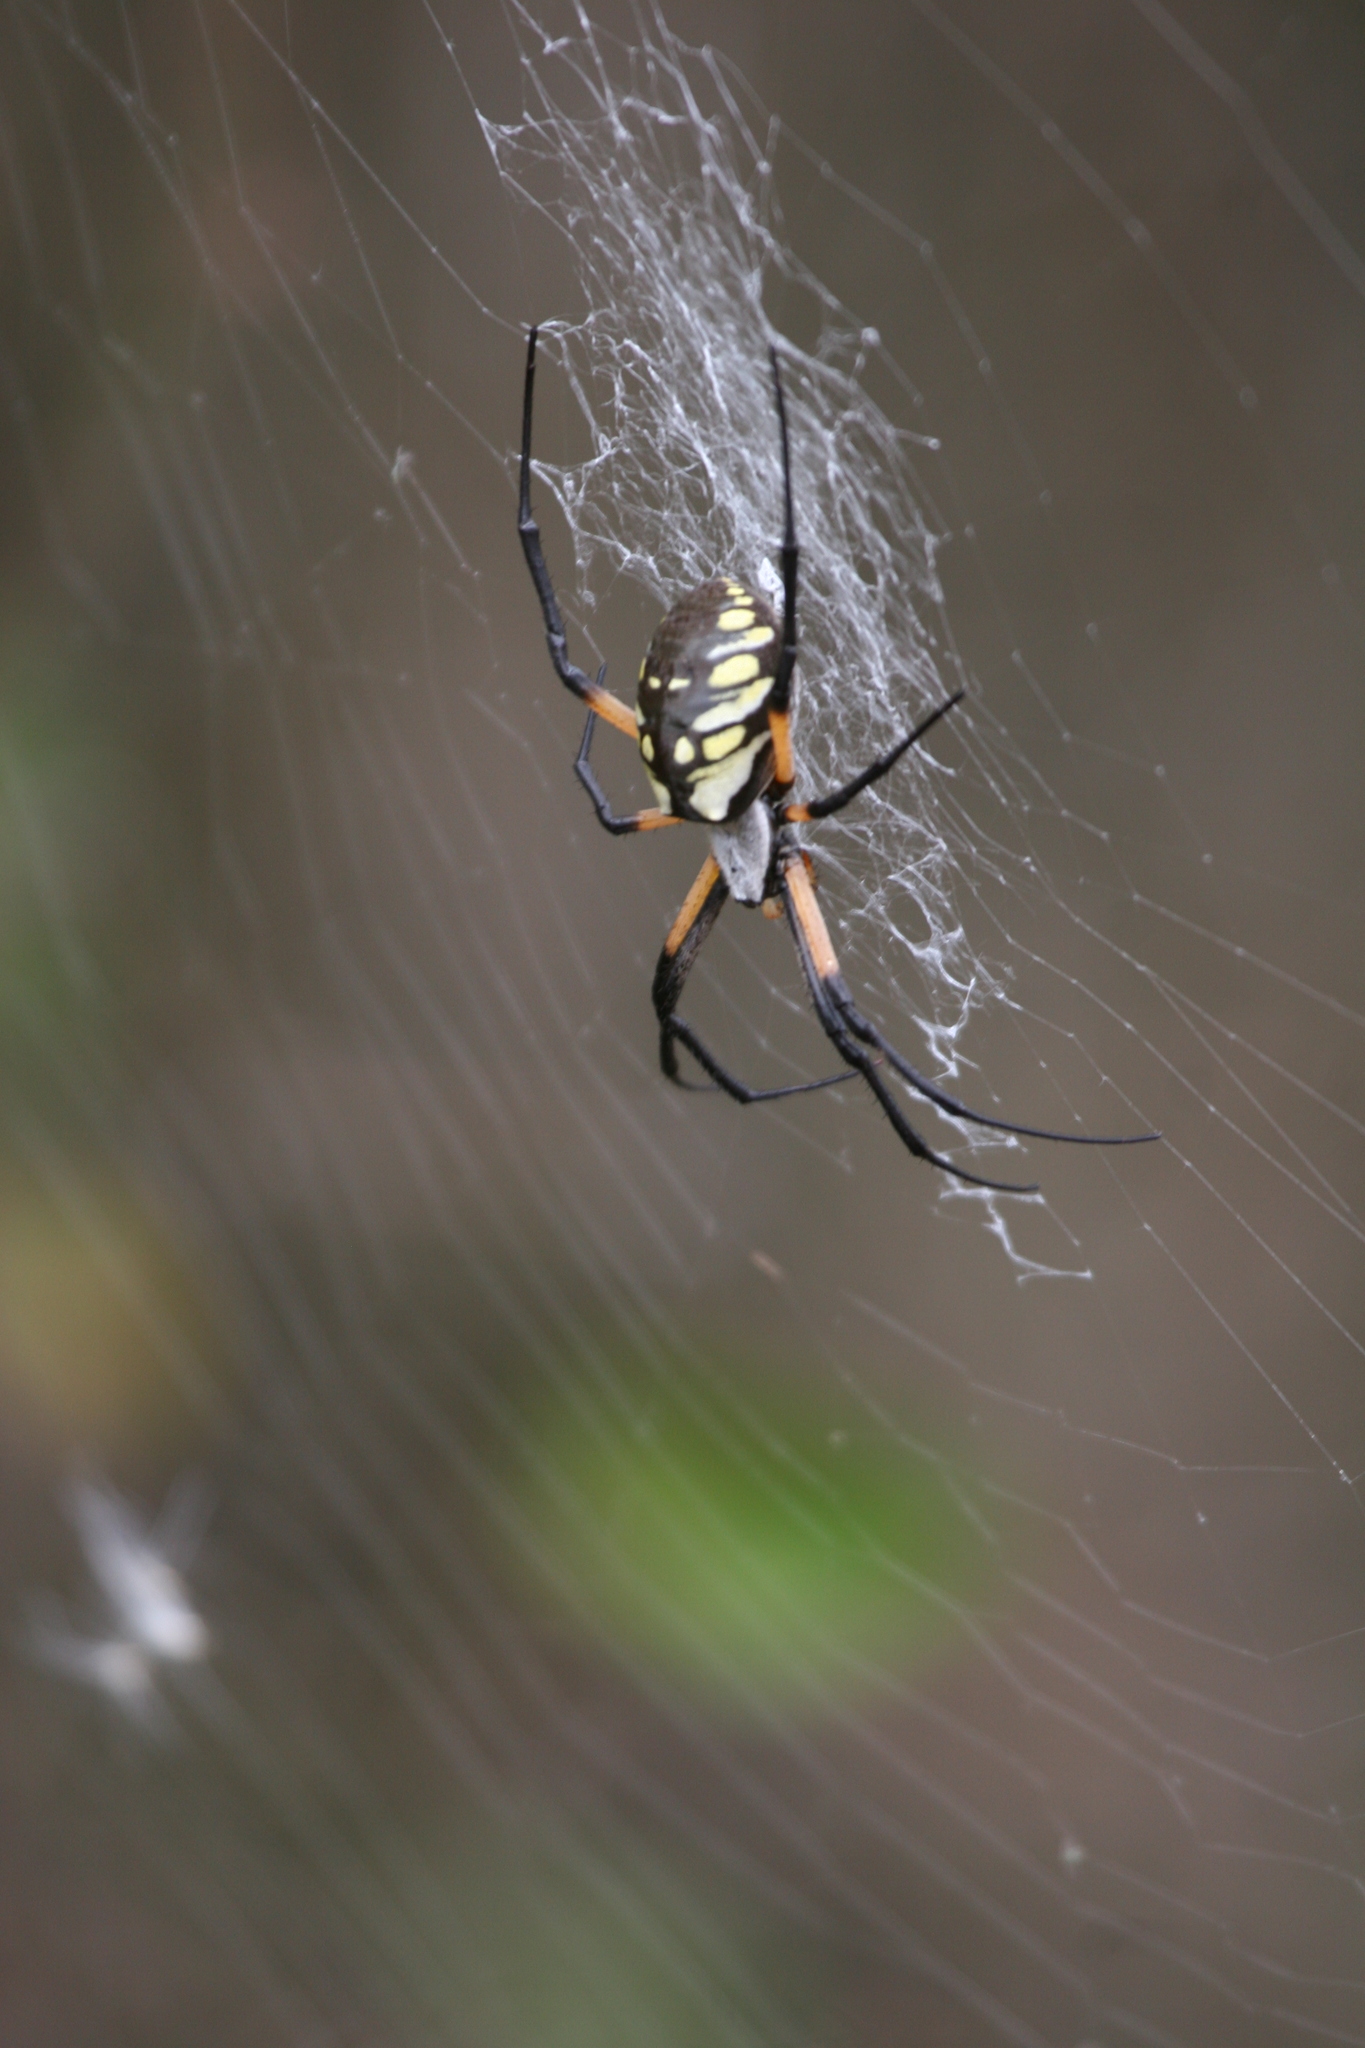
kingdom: Animalia
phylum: Arthropoda
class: Arachnida
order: Araneae
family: Araneidae
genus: Argiope
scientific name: Argiope aurantia
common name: Orb weavers
